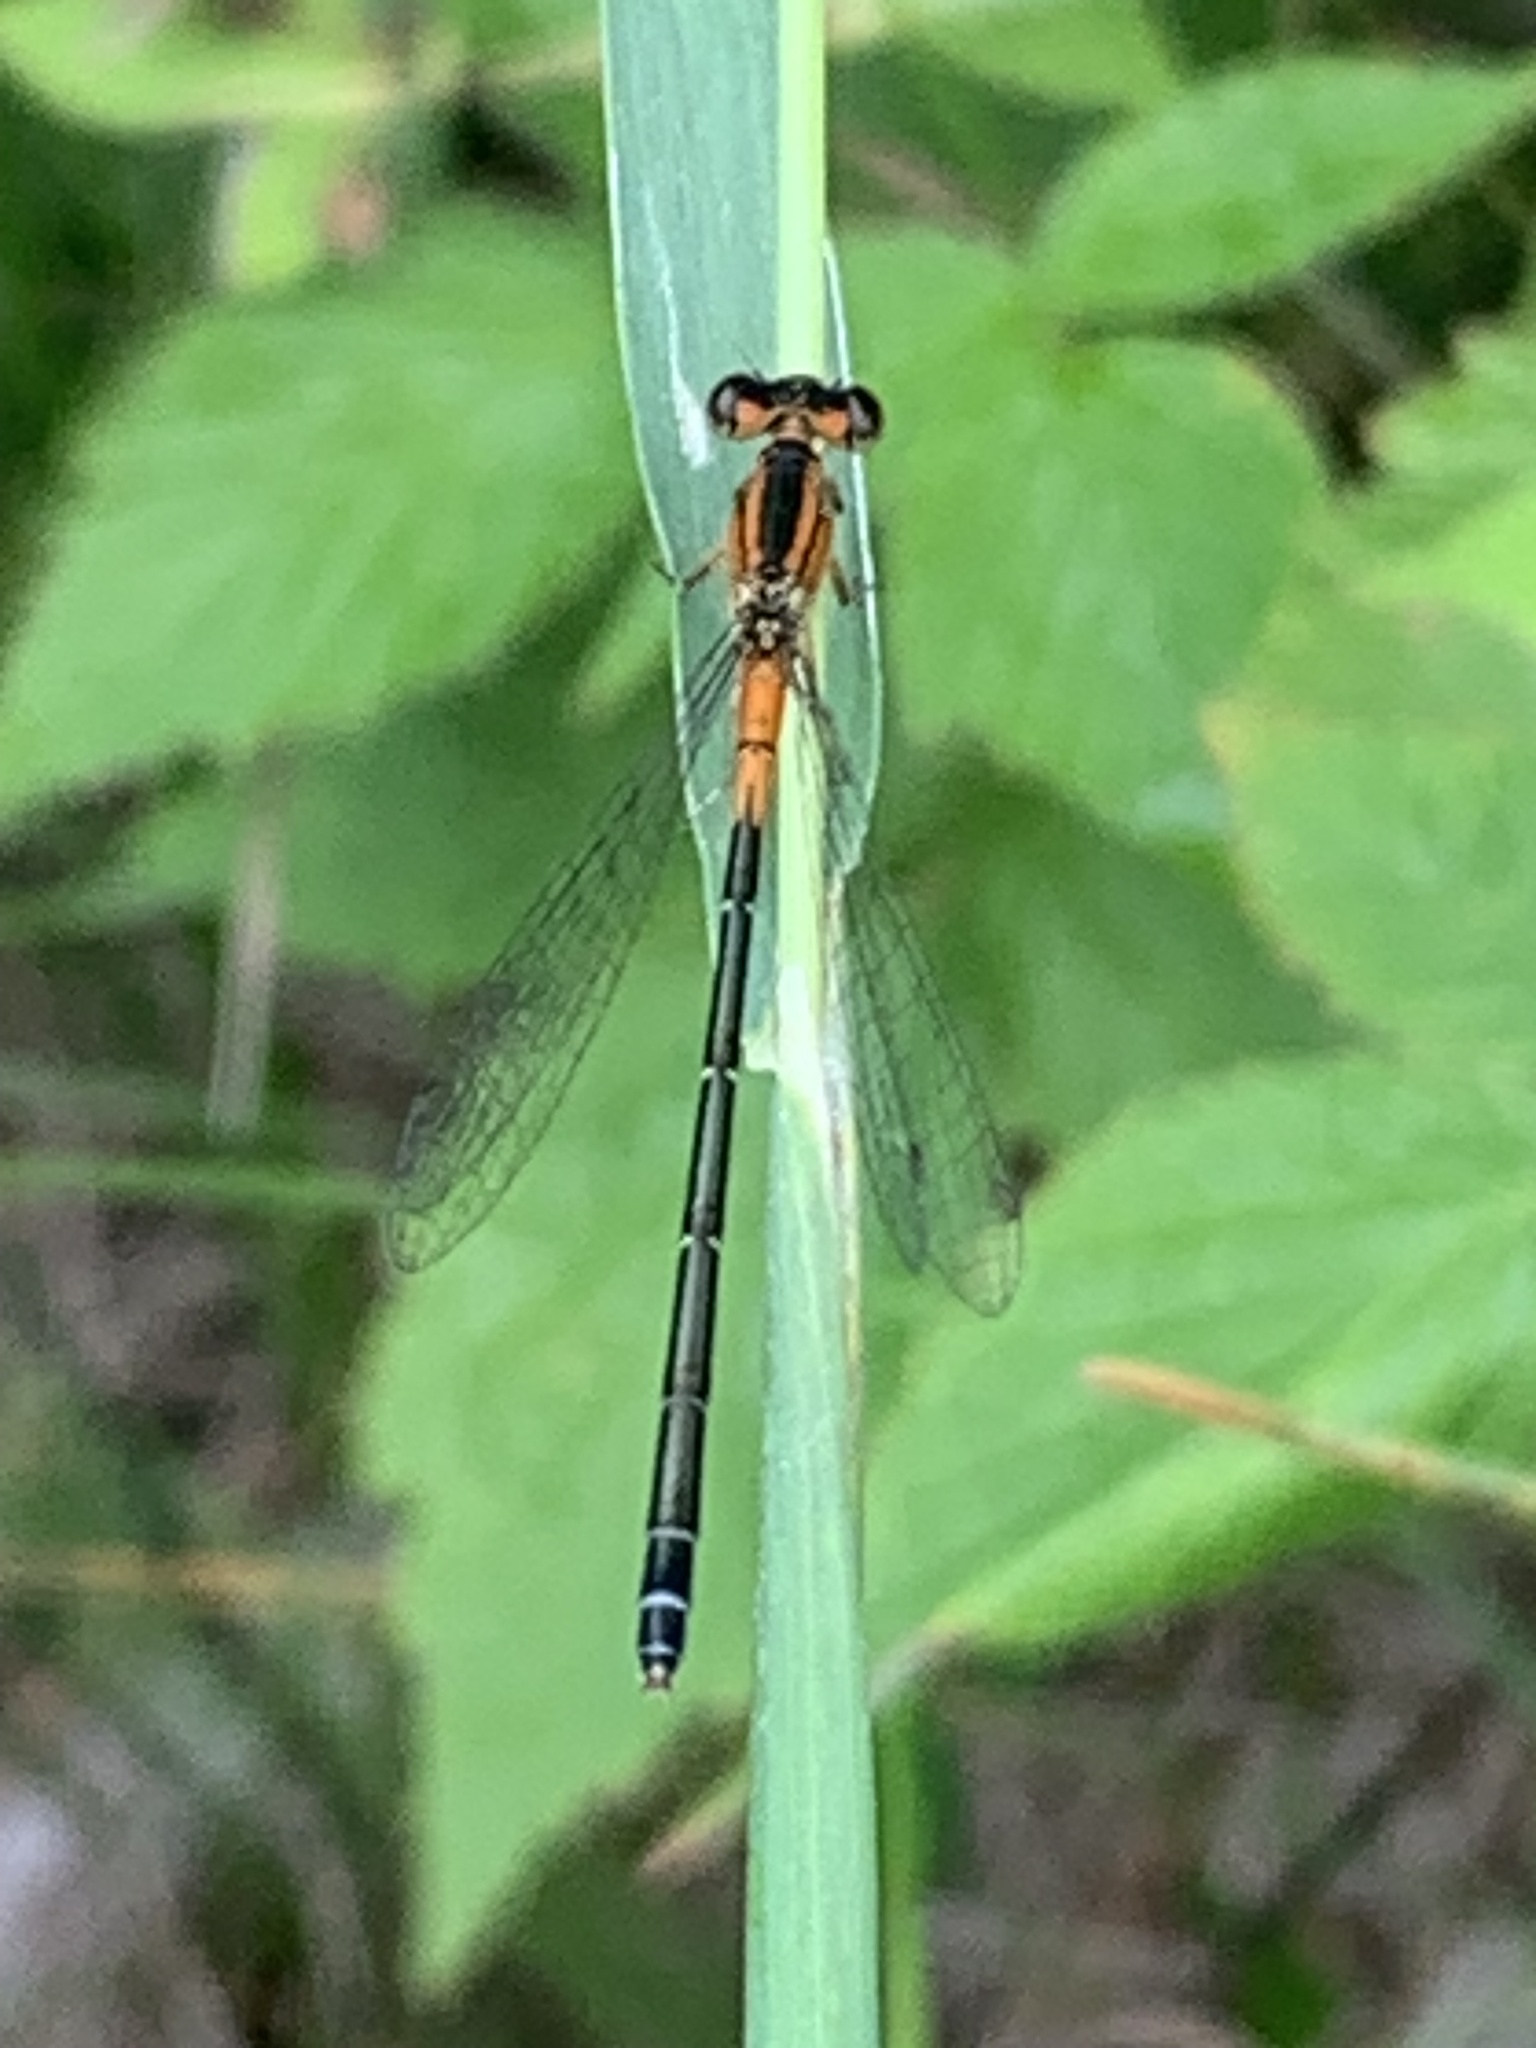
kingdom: Animalia
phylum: Arthropoda
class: Insecta
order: Odonata
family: Coenagrionidae
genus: Ischnura
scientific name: Ischnura verticalis
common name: Eastern forktail
